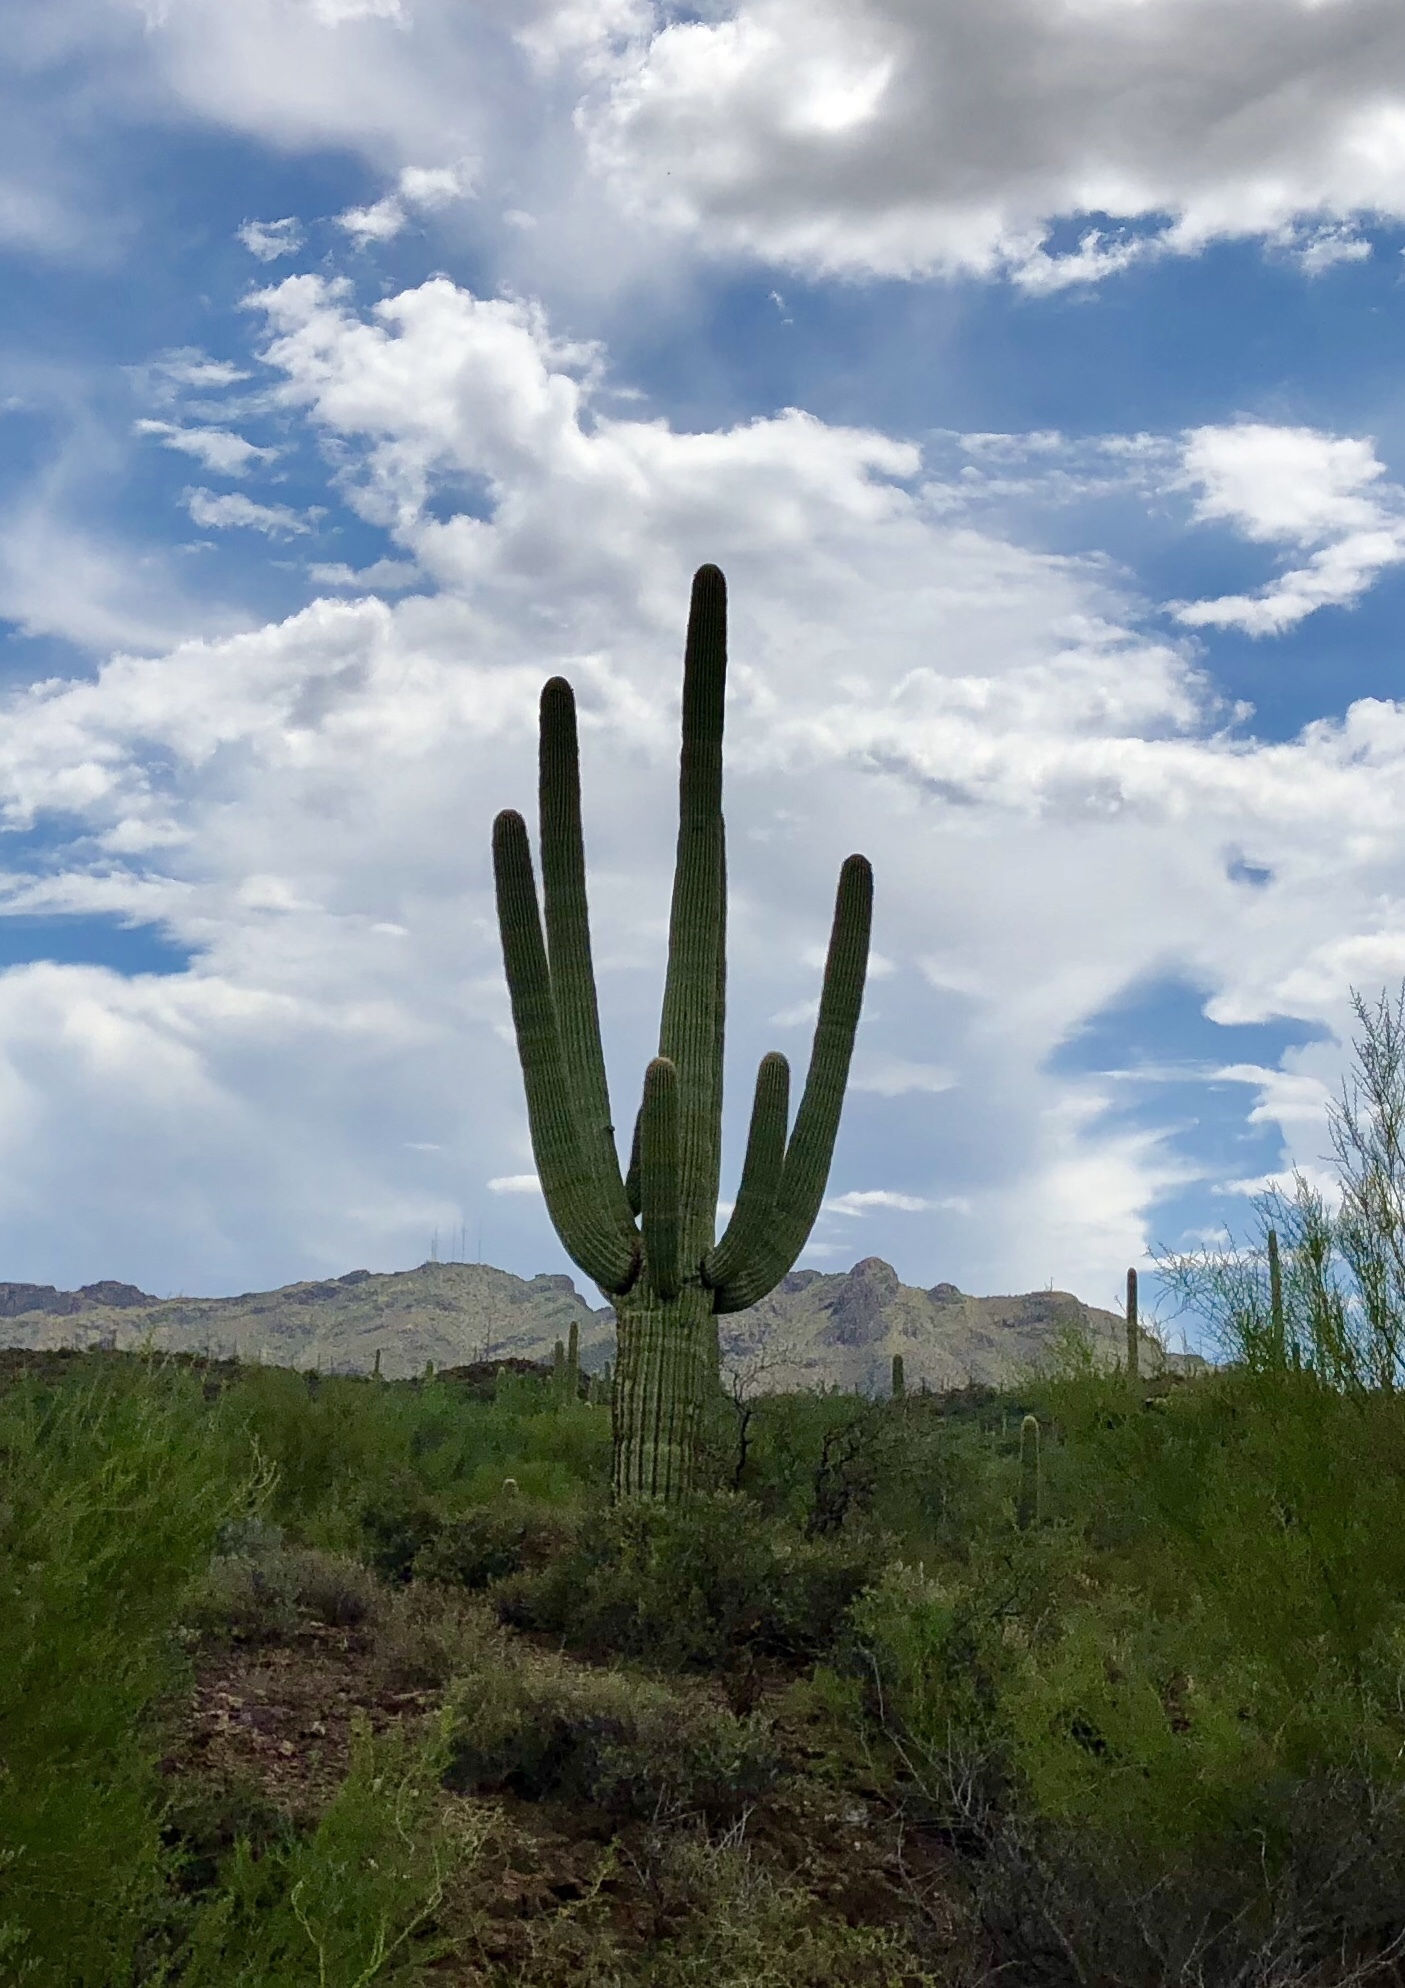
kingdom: Plantae
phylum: Tracheophyta
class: Magnoliopsida
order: Caryophyllales
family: Cactaceae
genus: Carnegiea
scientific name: Carnegiea gigantea
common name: Saguaro
